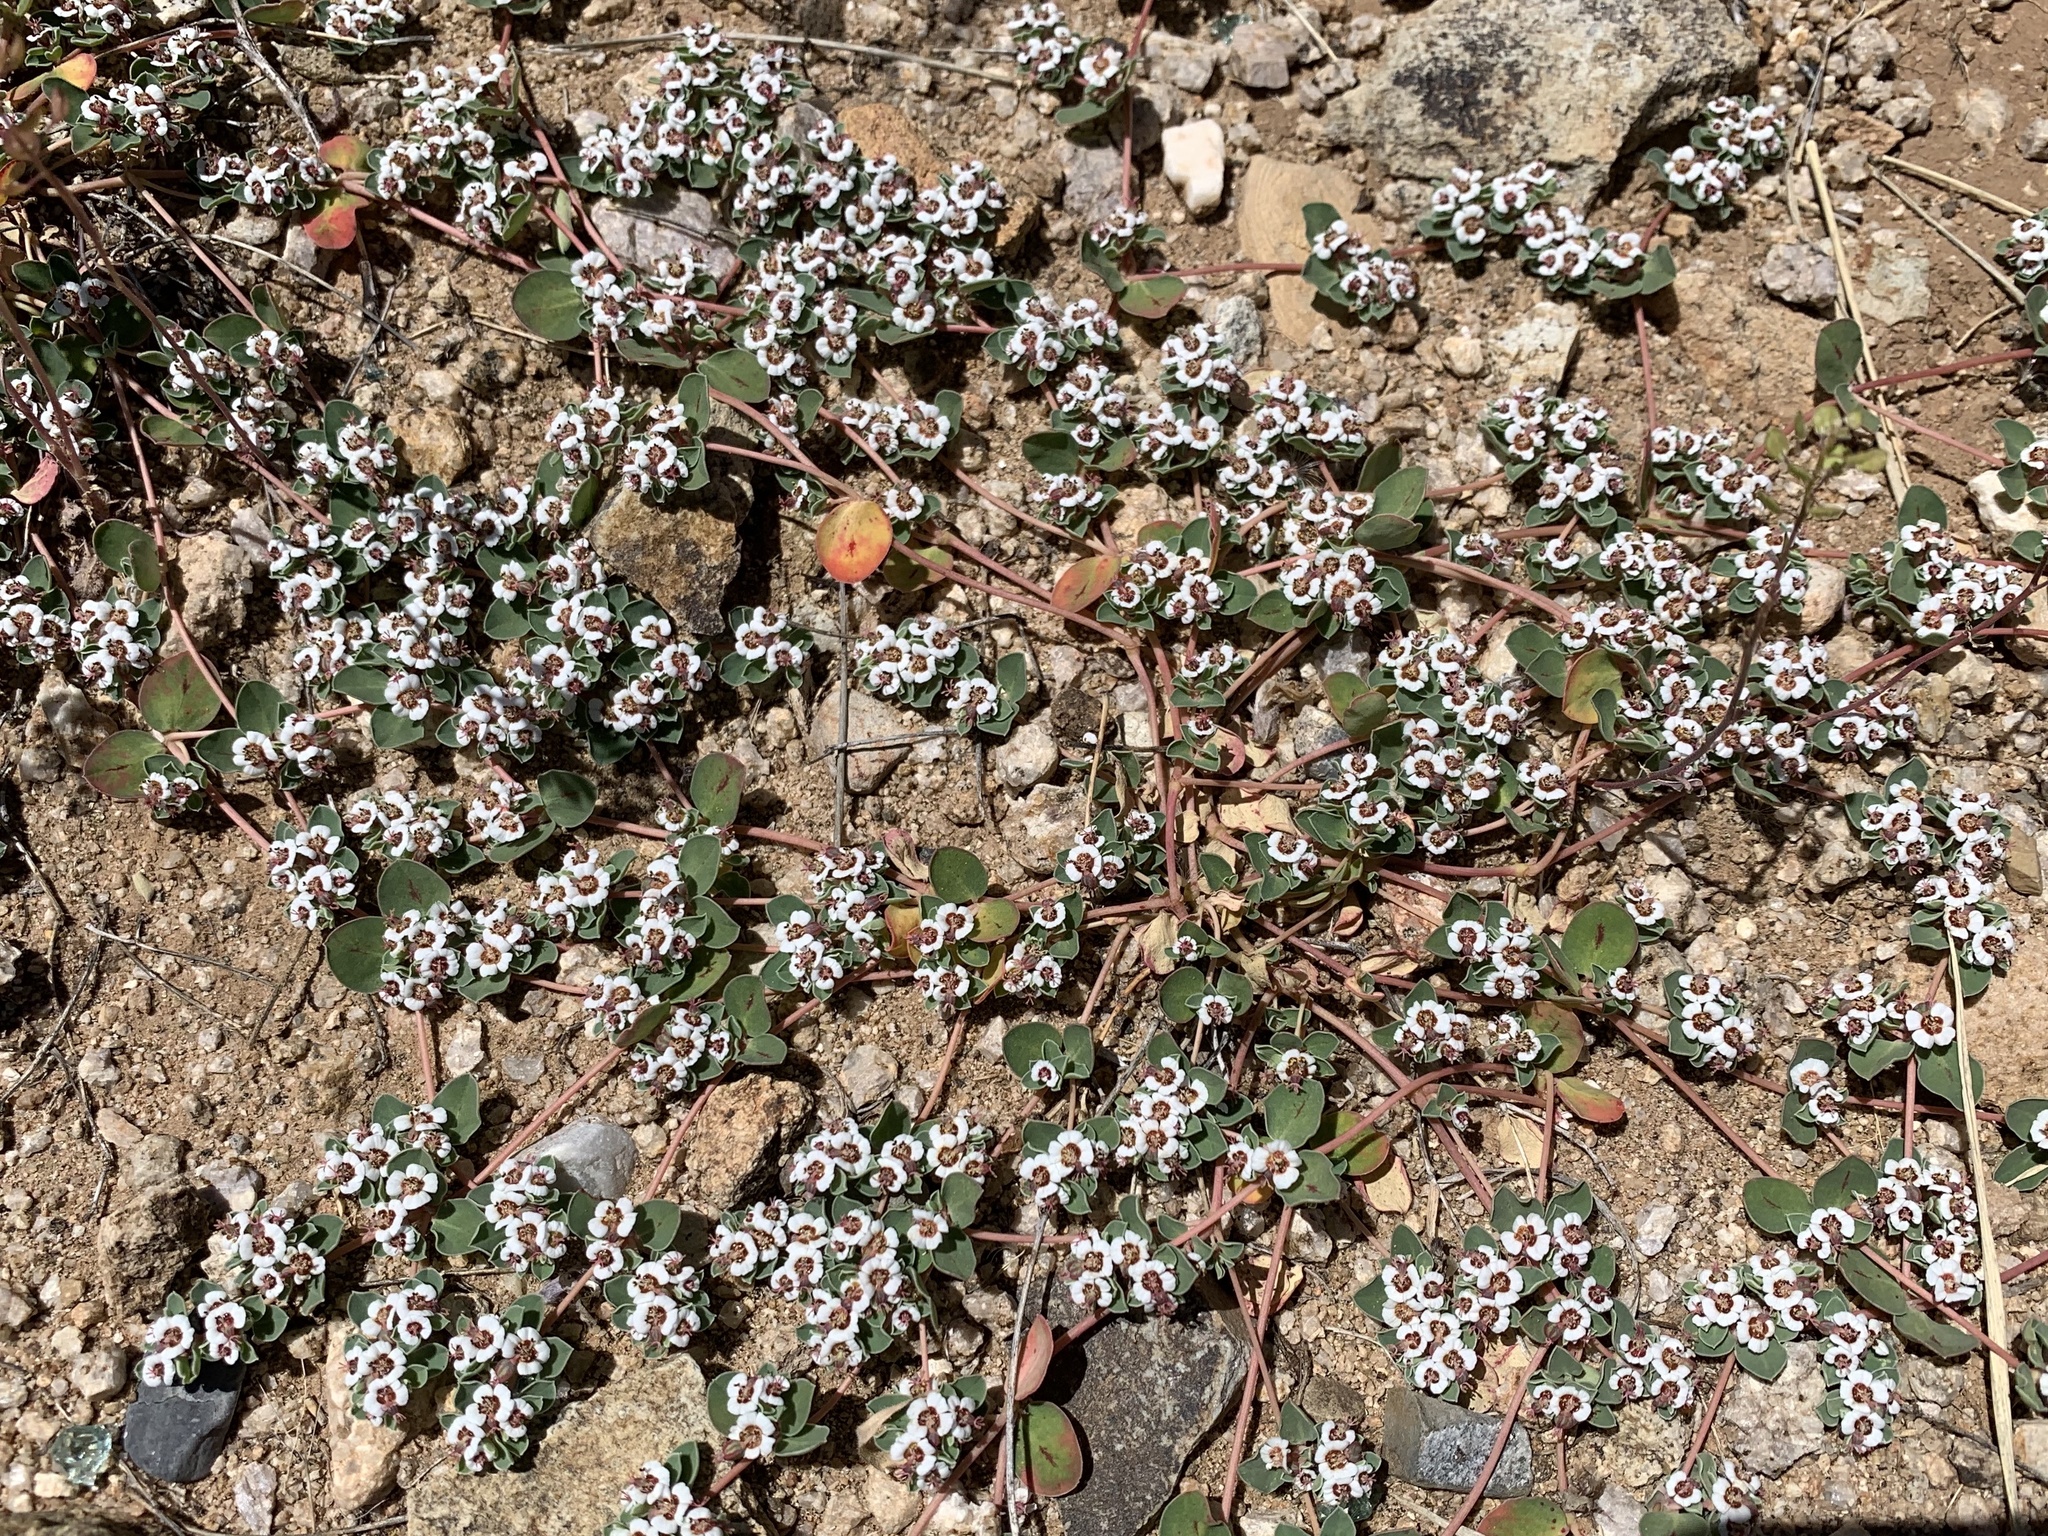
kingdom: Plantae
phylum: Tracheophyta
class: Magnoliopsida
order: Malpighiales
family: Euphorbiaceae
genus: Euphorbia
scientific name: Euphorbia albomarginata
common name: Whitemargin sandmat
